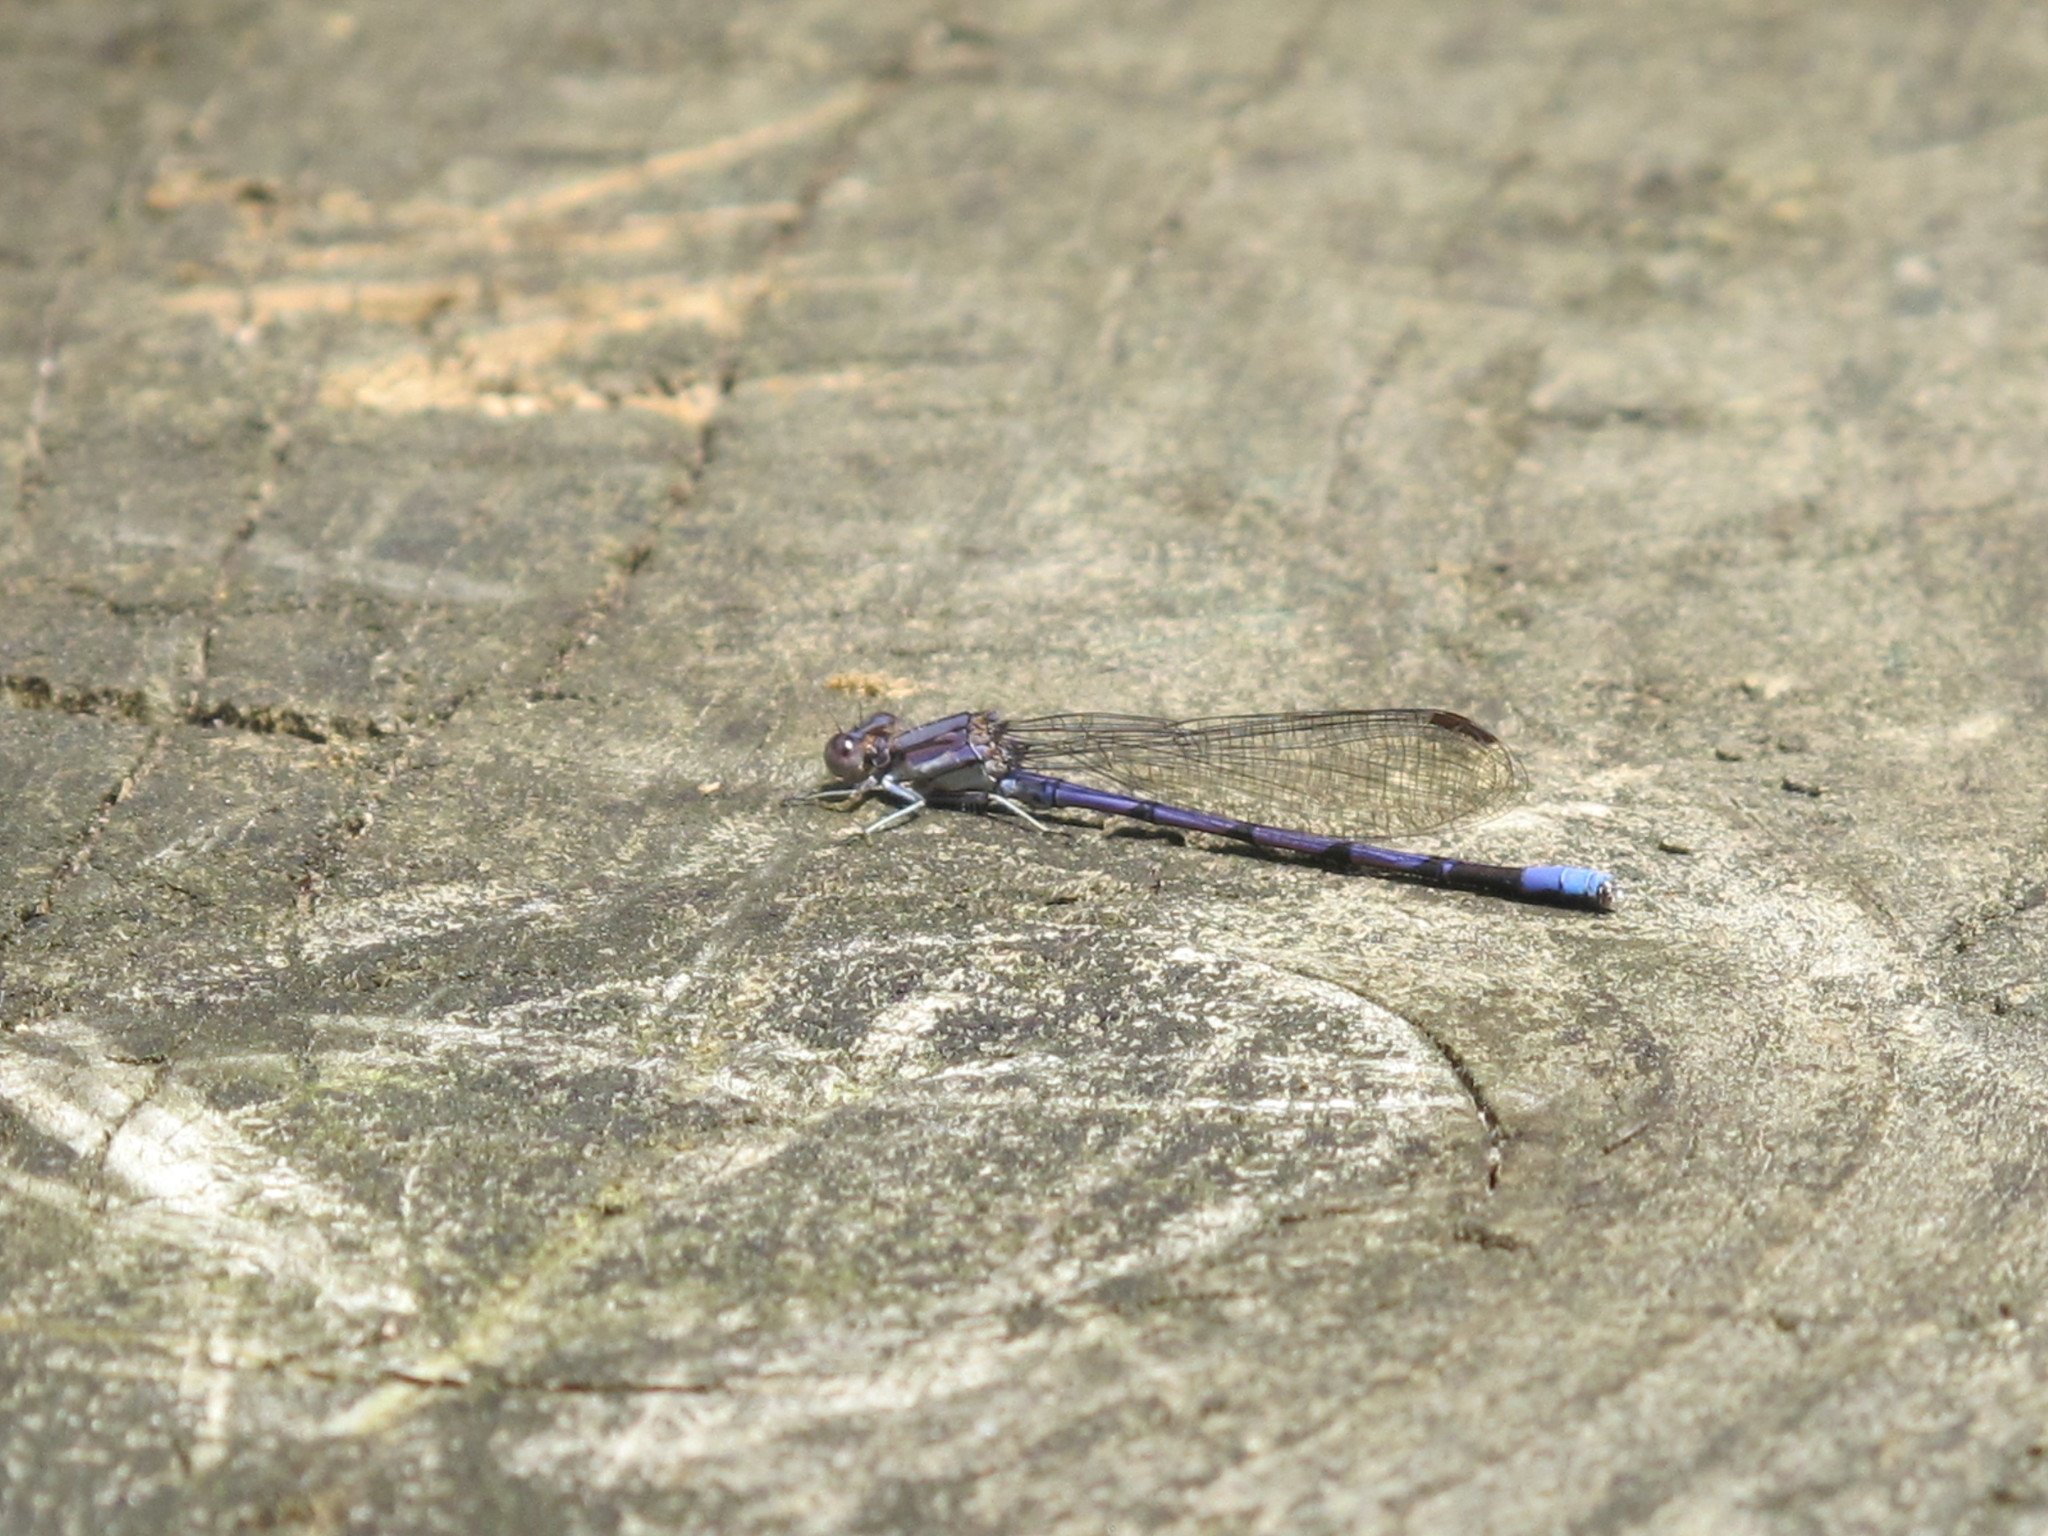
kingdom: Animalia
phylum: Arthropoda
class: Insecta
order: Odonata
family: Coenagrionidae
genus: Argia
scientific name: Argia fumipennis
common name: Variable dancer
